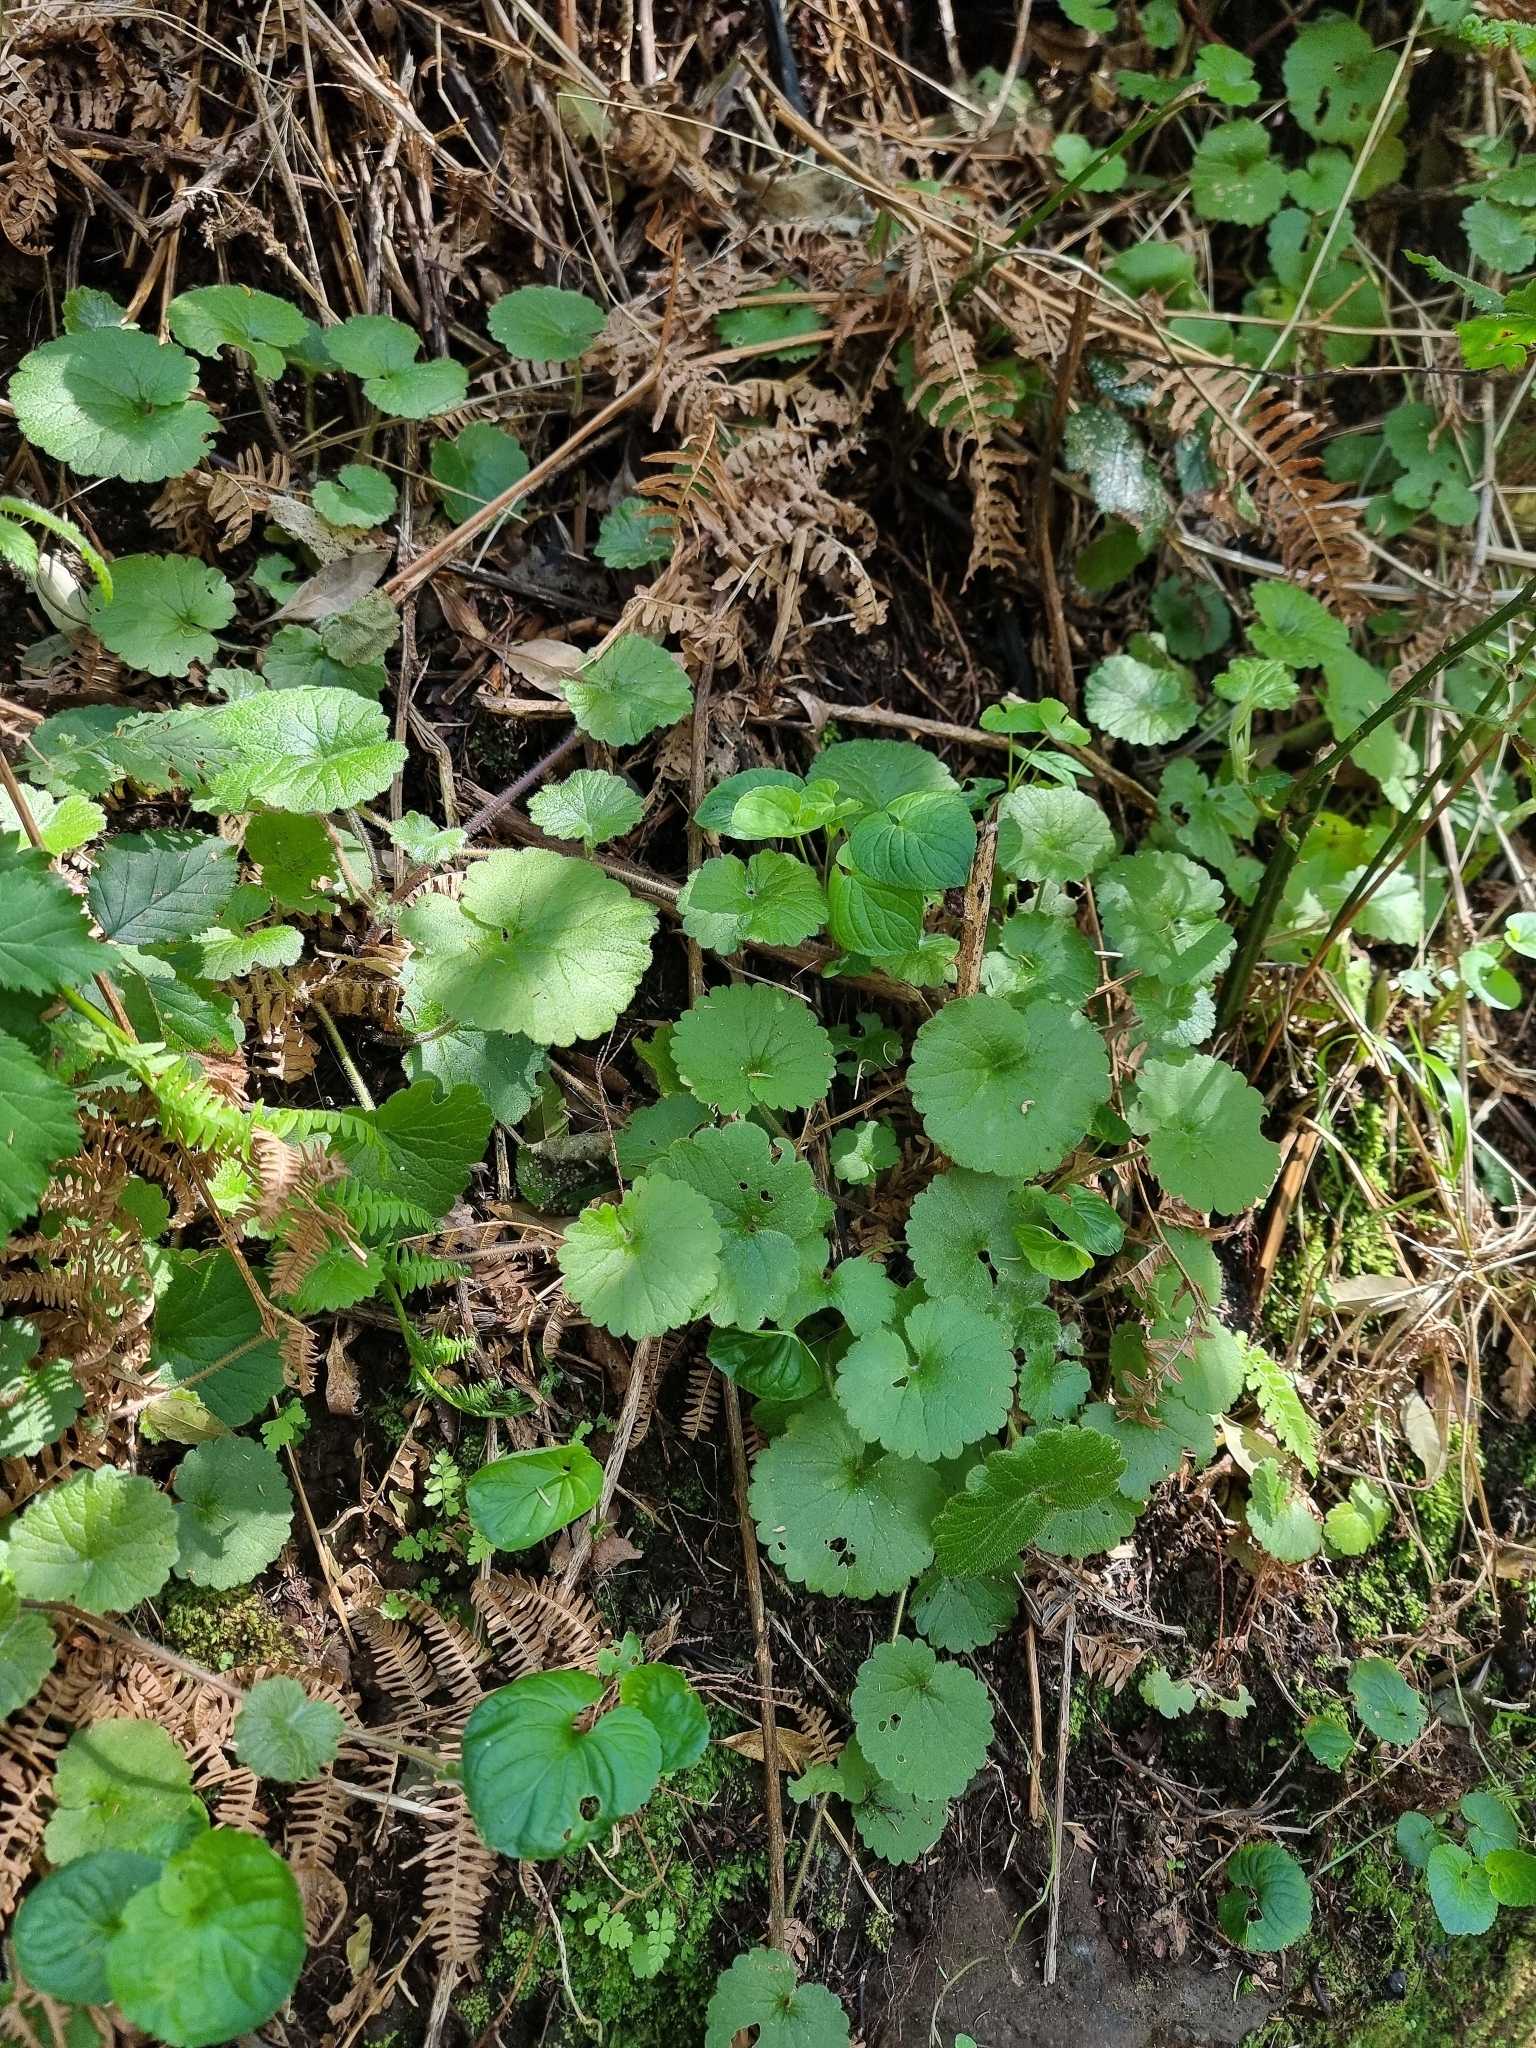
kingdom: Plantae
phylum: Tracheophyta
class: Magnoliopsida
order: Lamiales
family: Plantaginaceae
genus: Sibthorpia
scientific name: Sibthorpia peregrina
